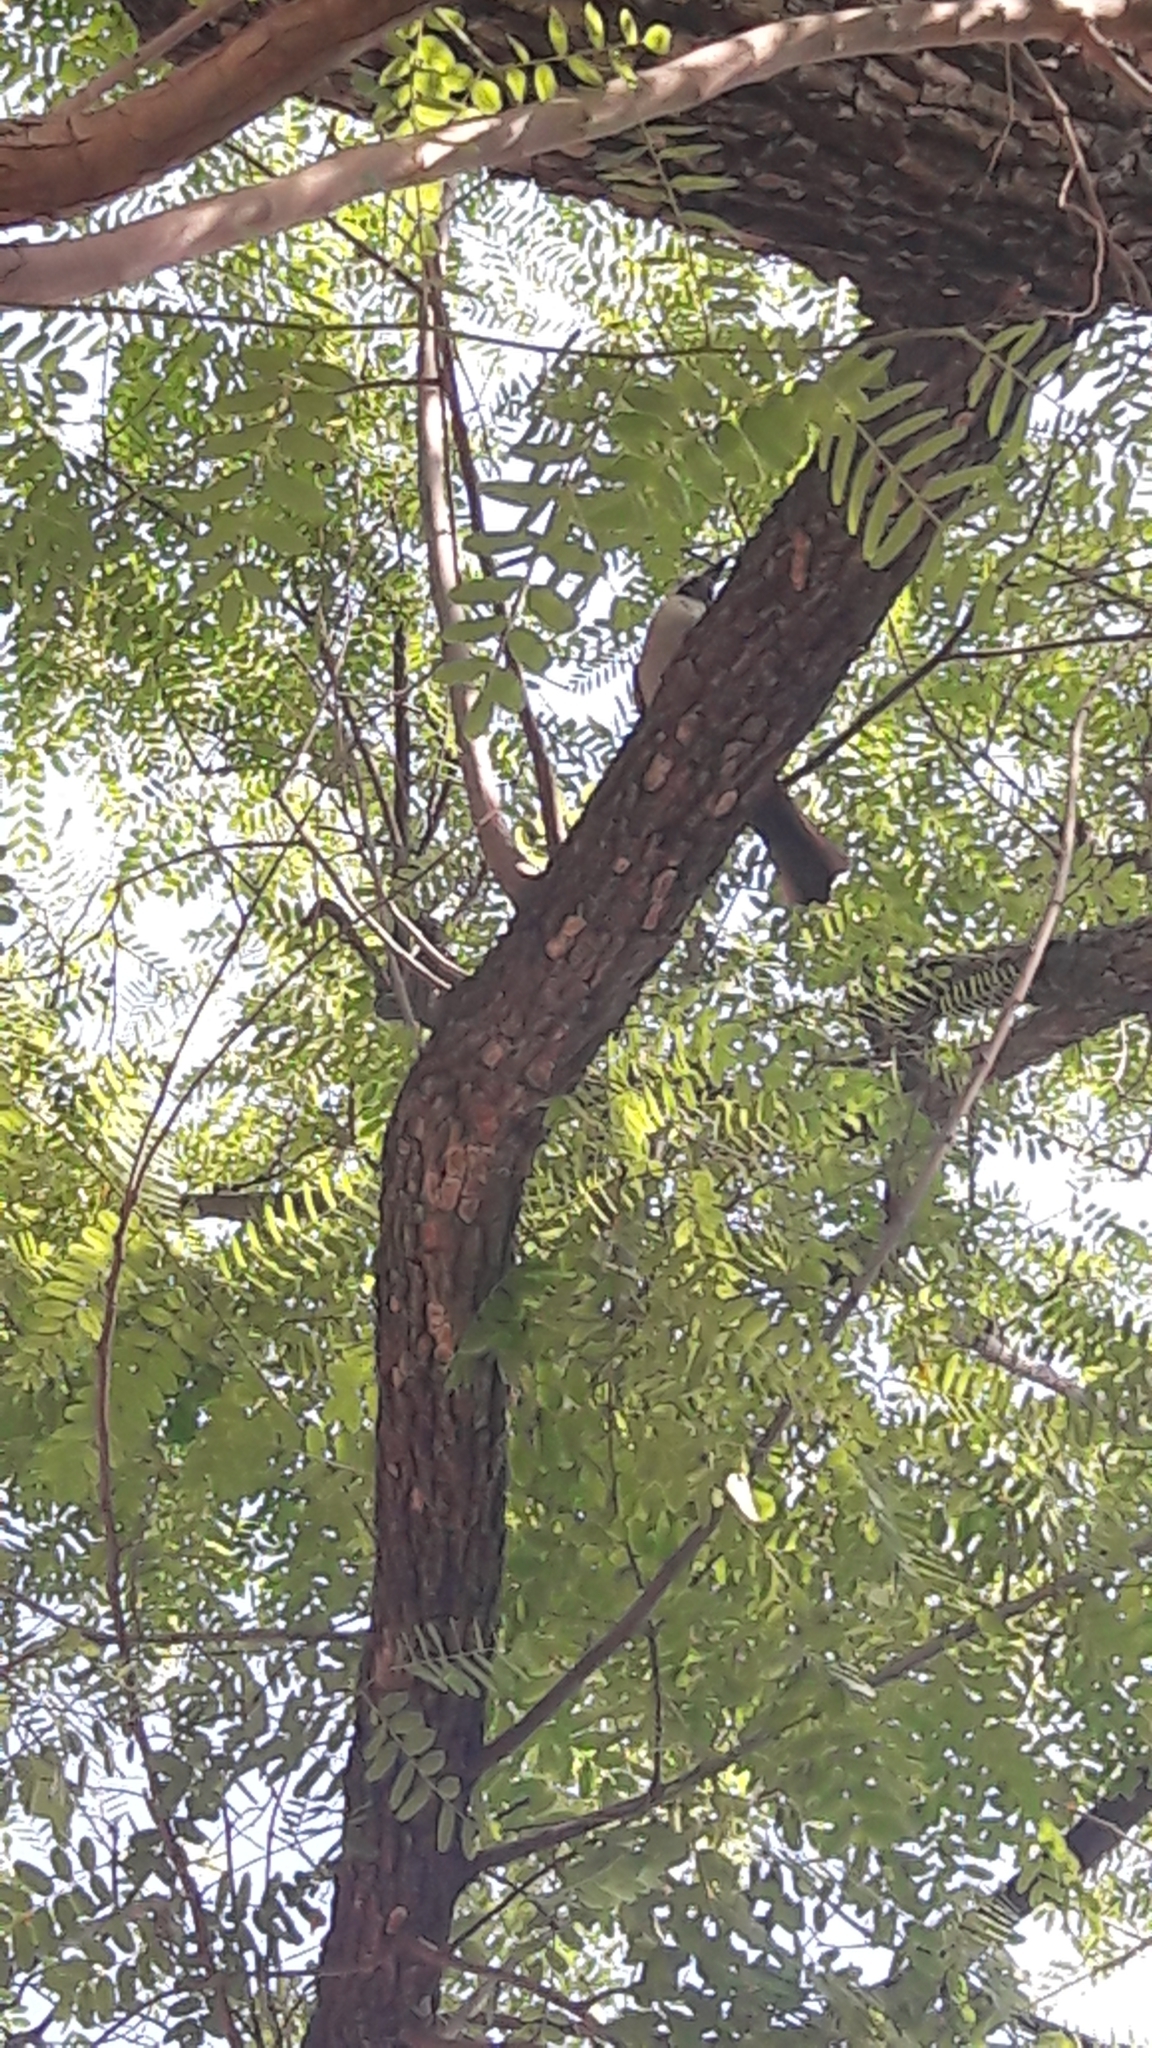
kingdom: Animalia
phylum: Chordata
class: Aves
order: Passeriformes
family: Corvidae
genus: Garrulus
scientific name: Garrulus glandarius
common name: Eurasian jay
